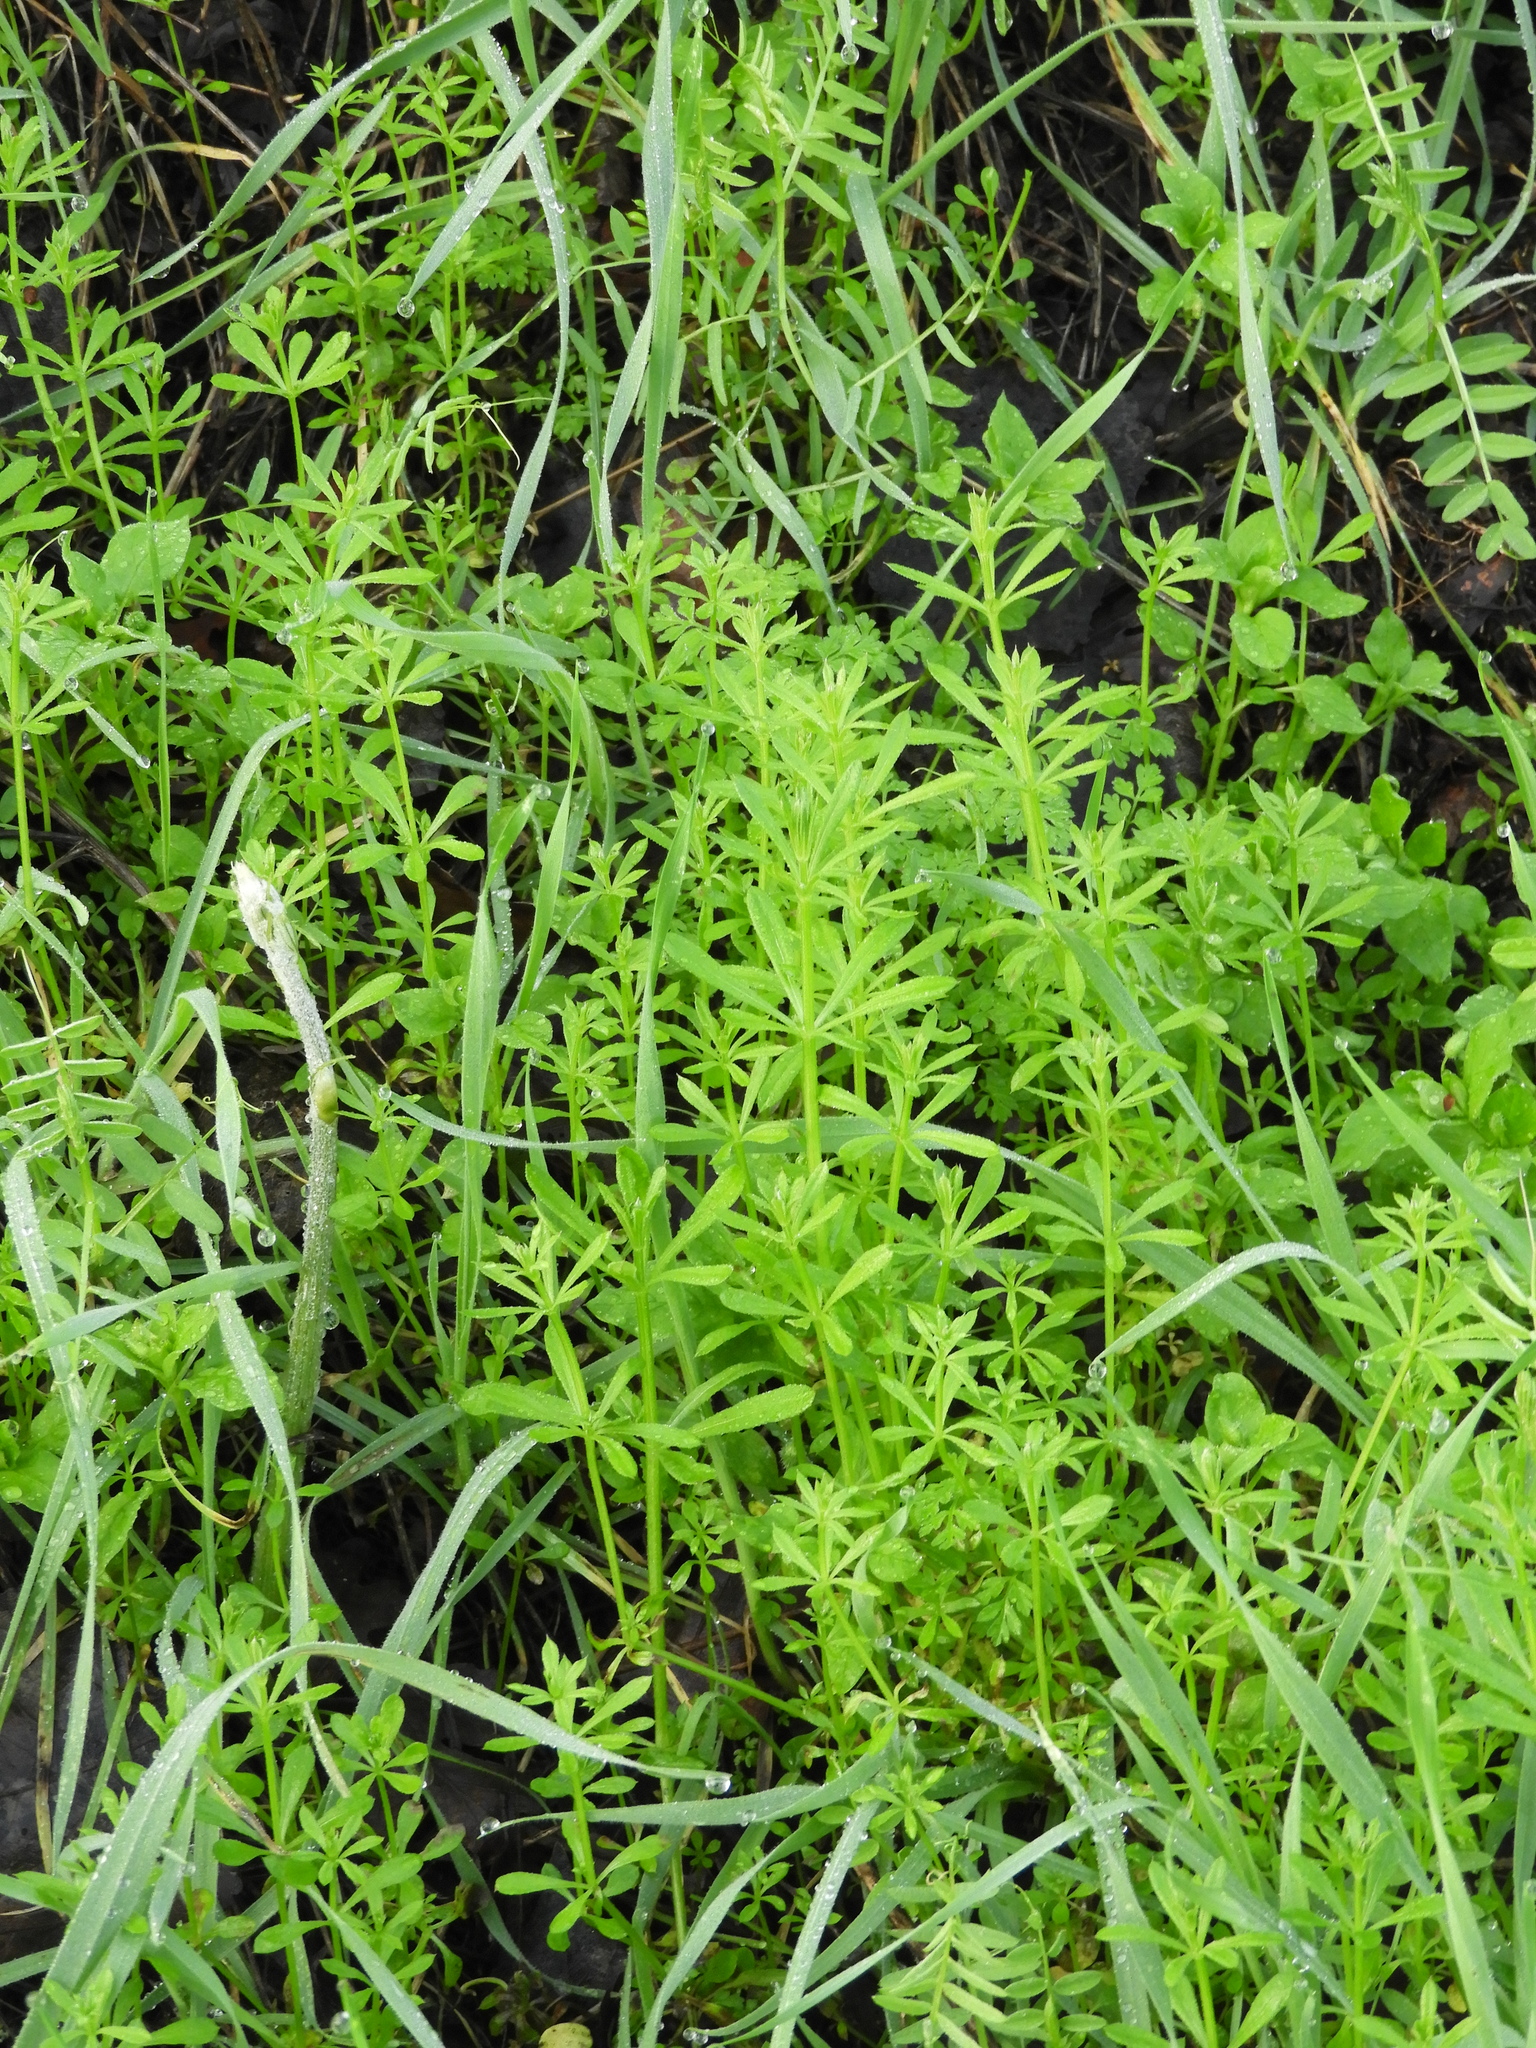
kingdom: Plantae
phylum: Tracheophyta
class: Magnoliopsida
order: Gentianales
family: Rubiaceae
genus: Galium
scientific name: Galium aparine
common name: Cleavers
